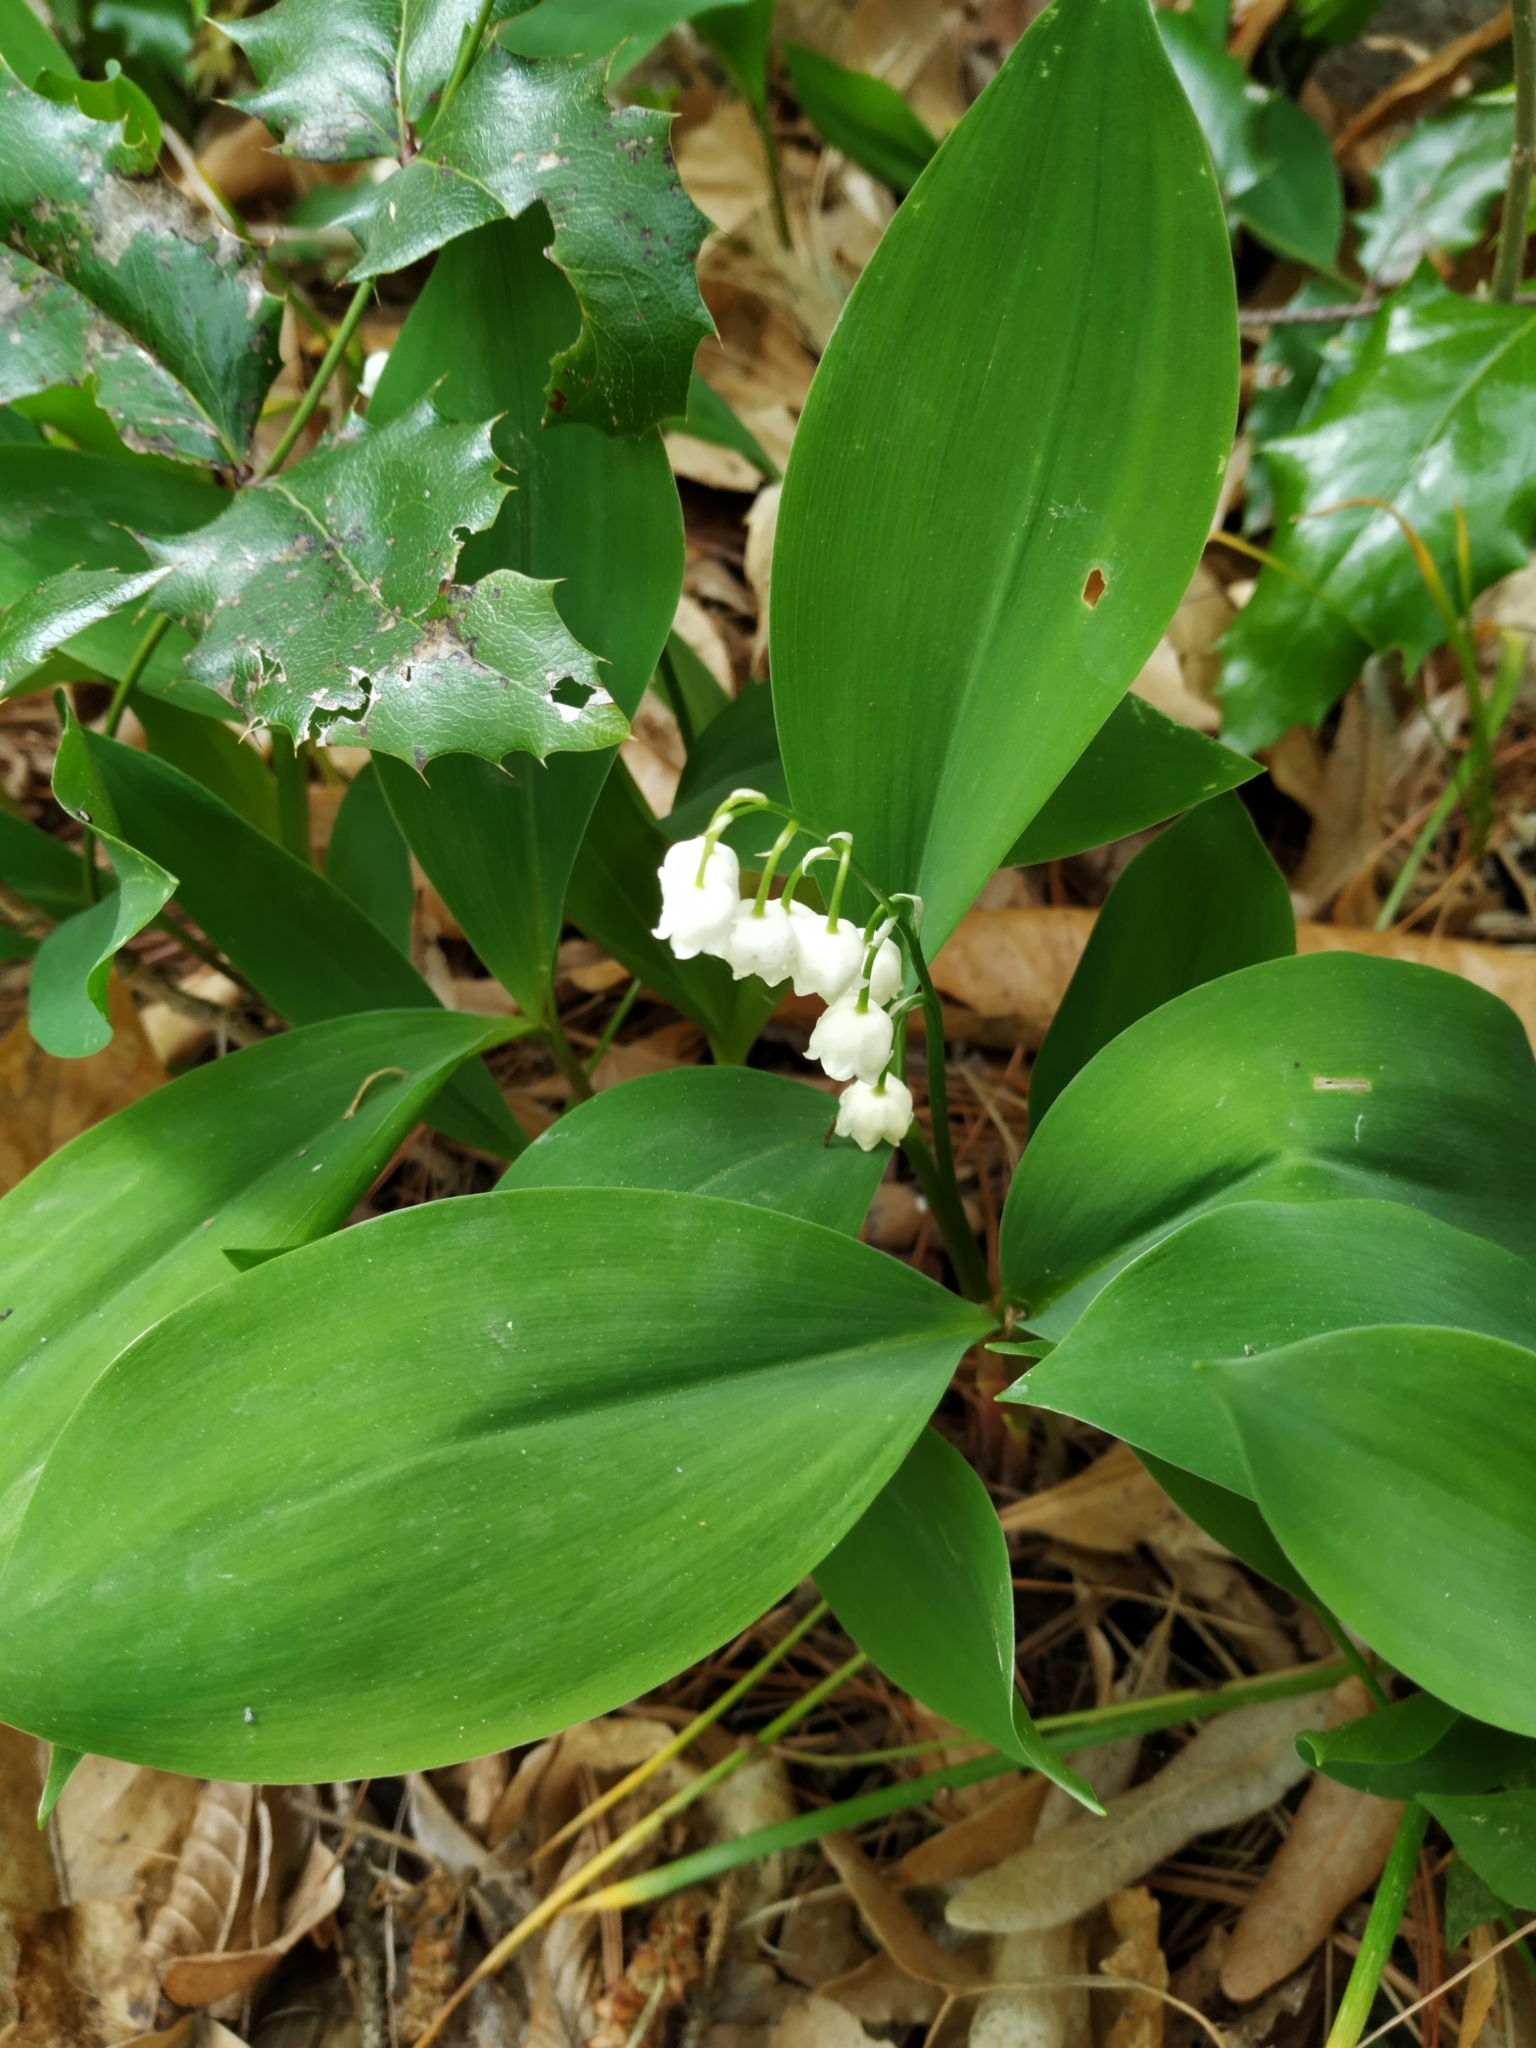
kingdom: Plantae
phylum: Tracheophyta
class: Liliopsida
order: Asparagales
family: Asparagaceae
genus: Convallaria
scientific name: Convallaria majalis
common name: Lily-of-the-valley
